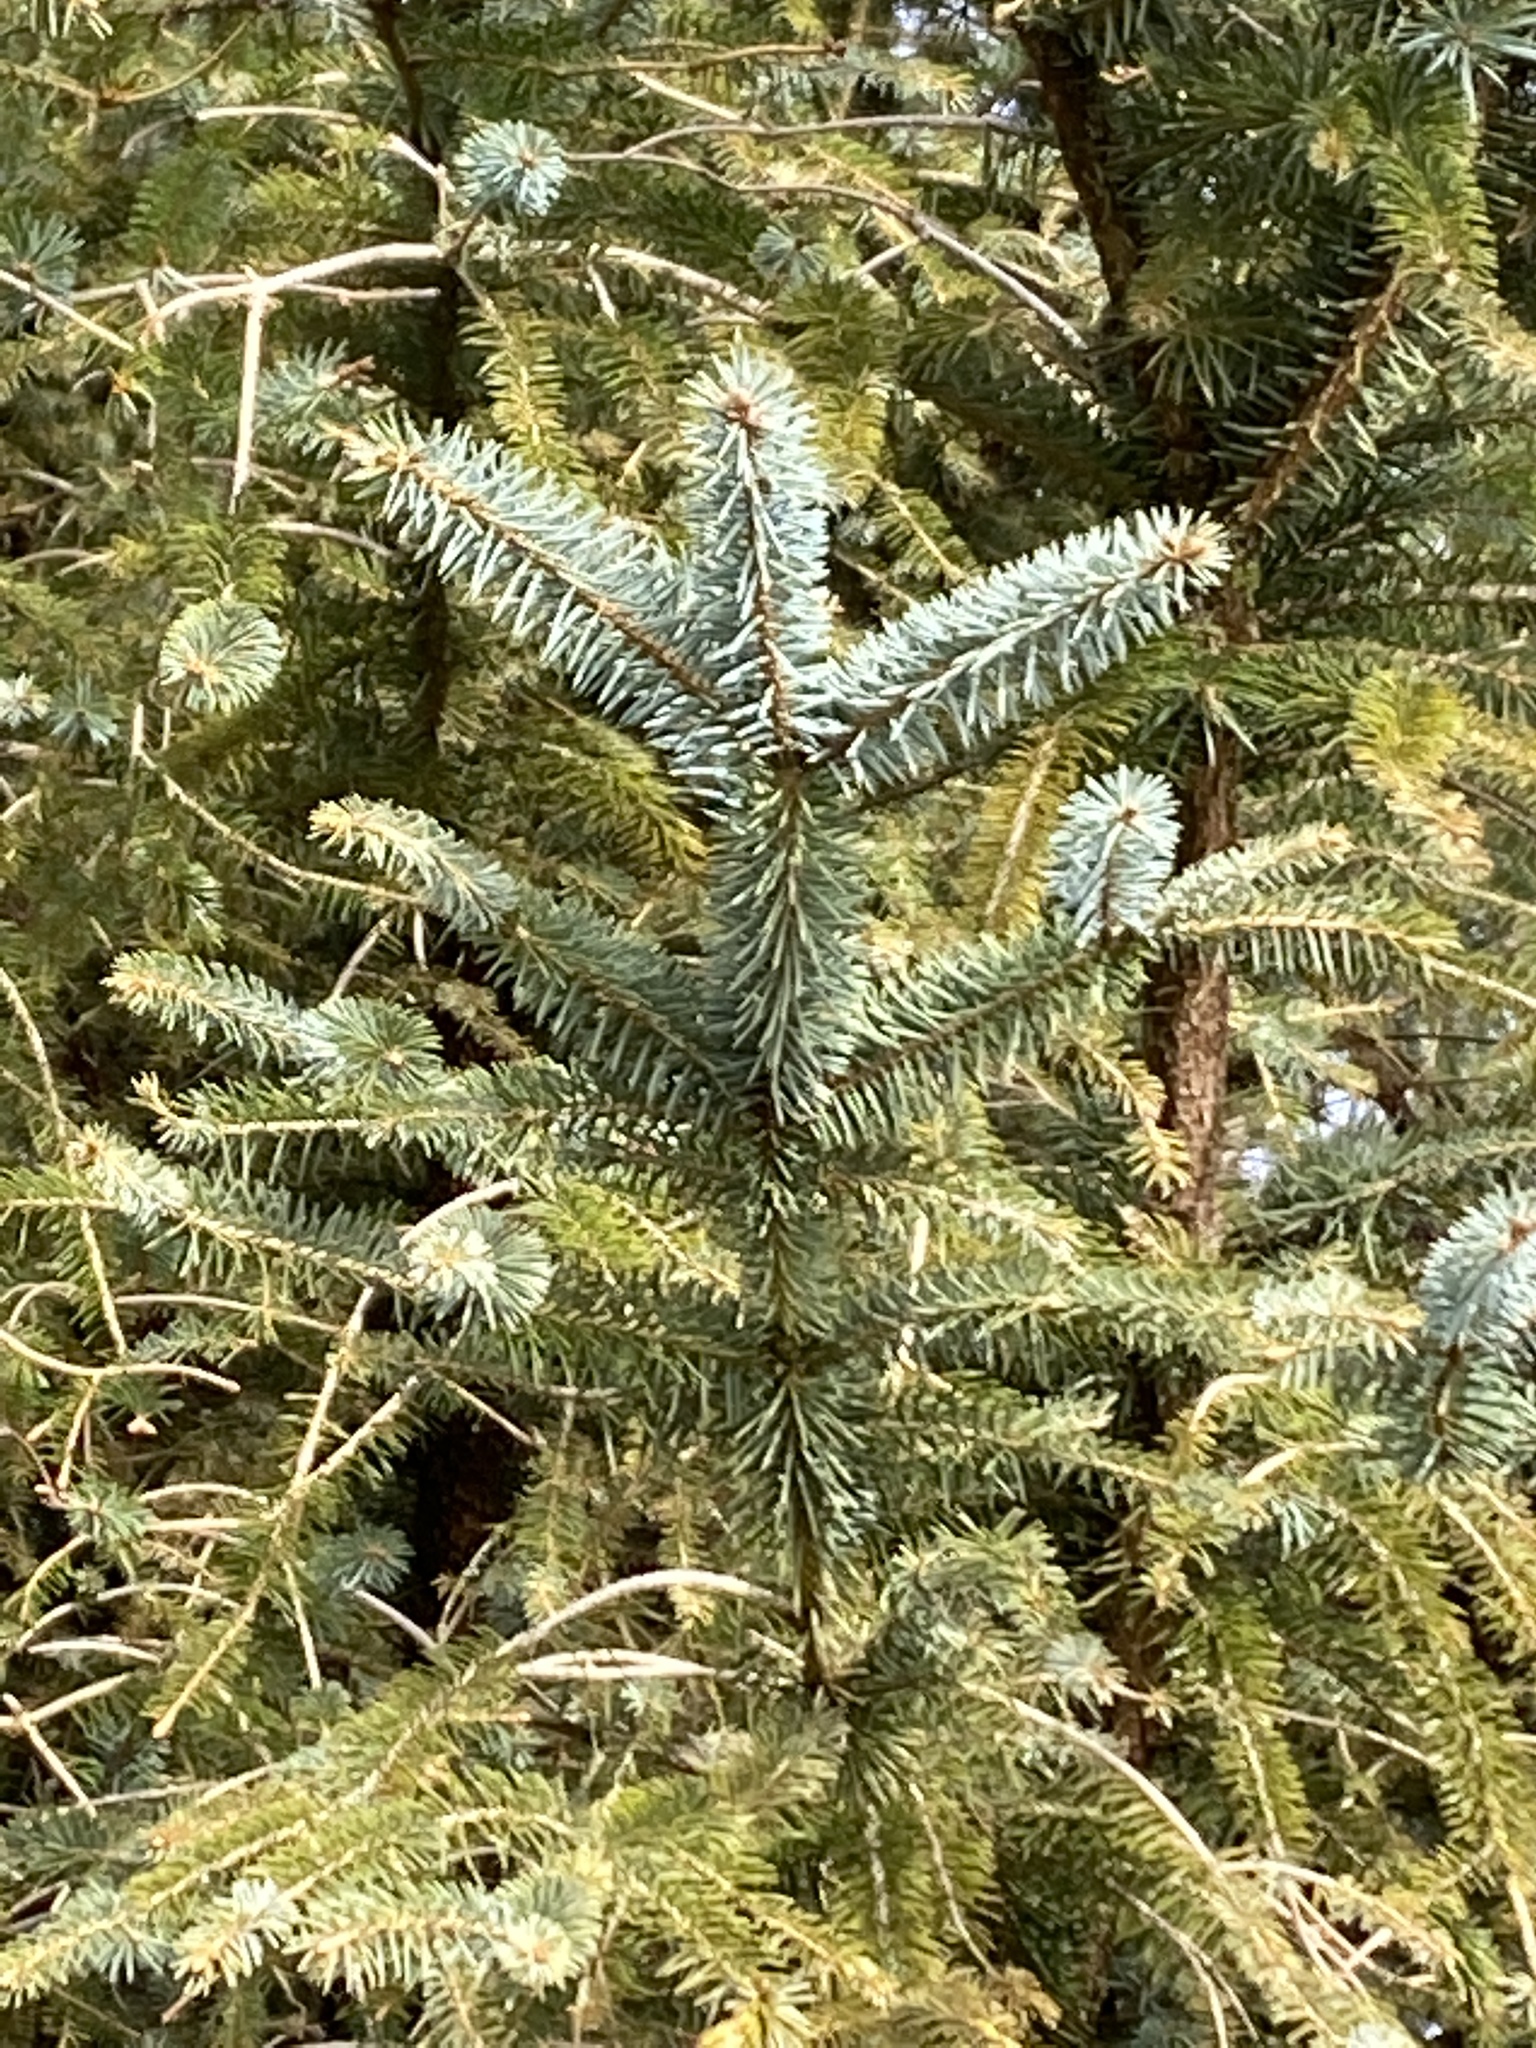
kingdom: Plantae
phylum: Tracheophyta
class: Pinopsida
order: Pinales
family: Pinaceae
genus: Picea
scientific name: Picea sitchensis
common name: Sitka spruce
